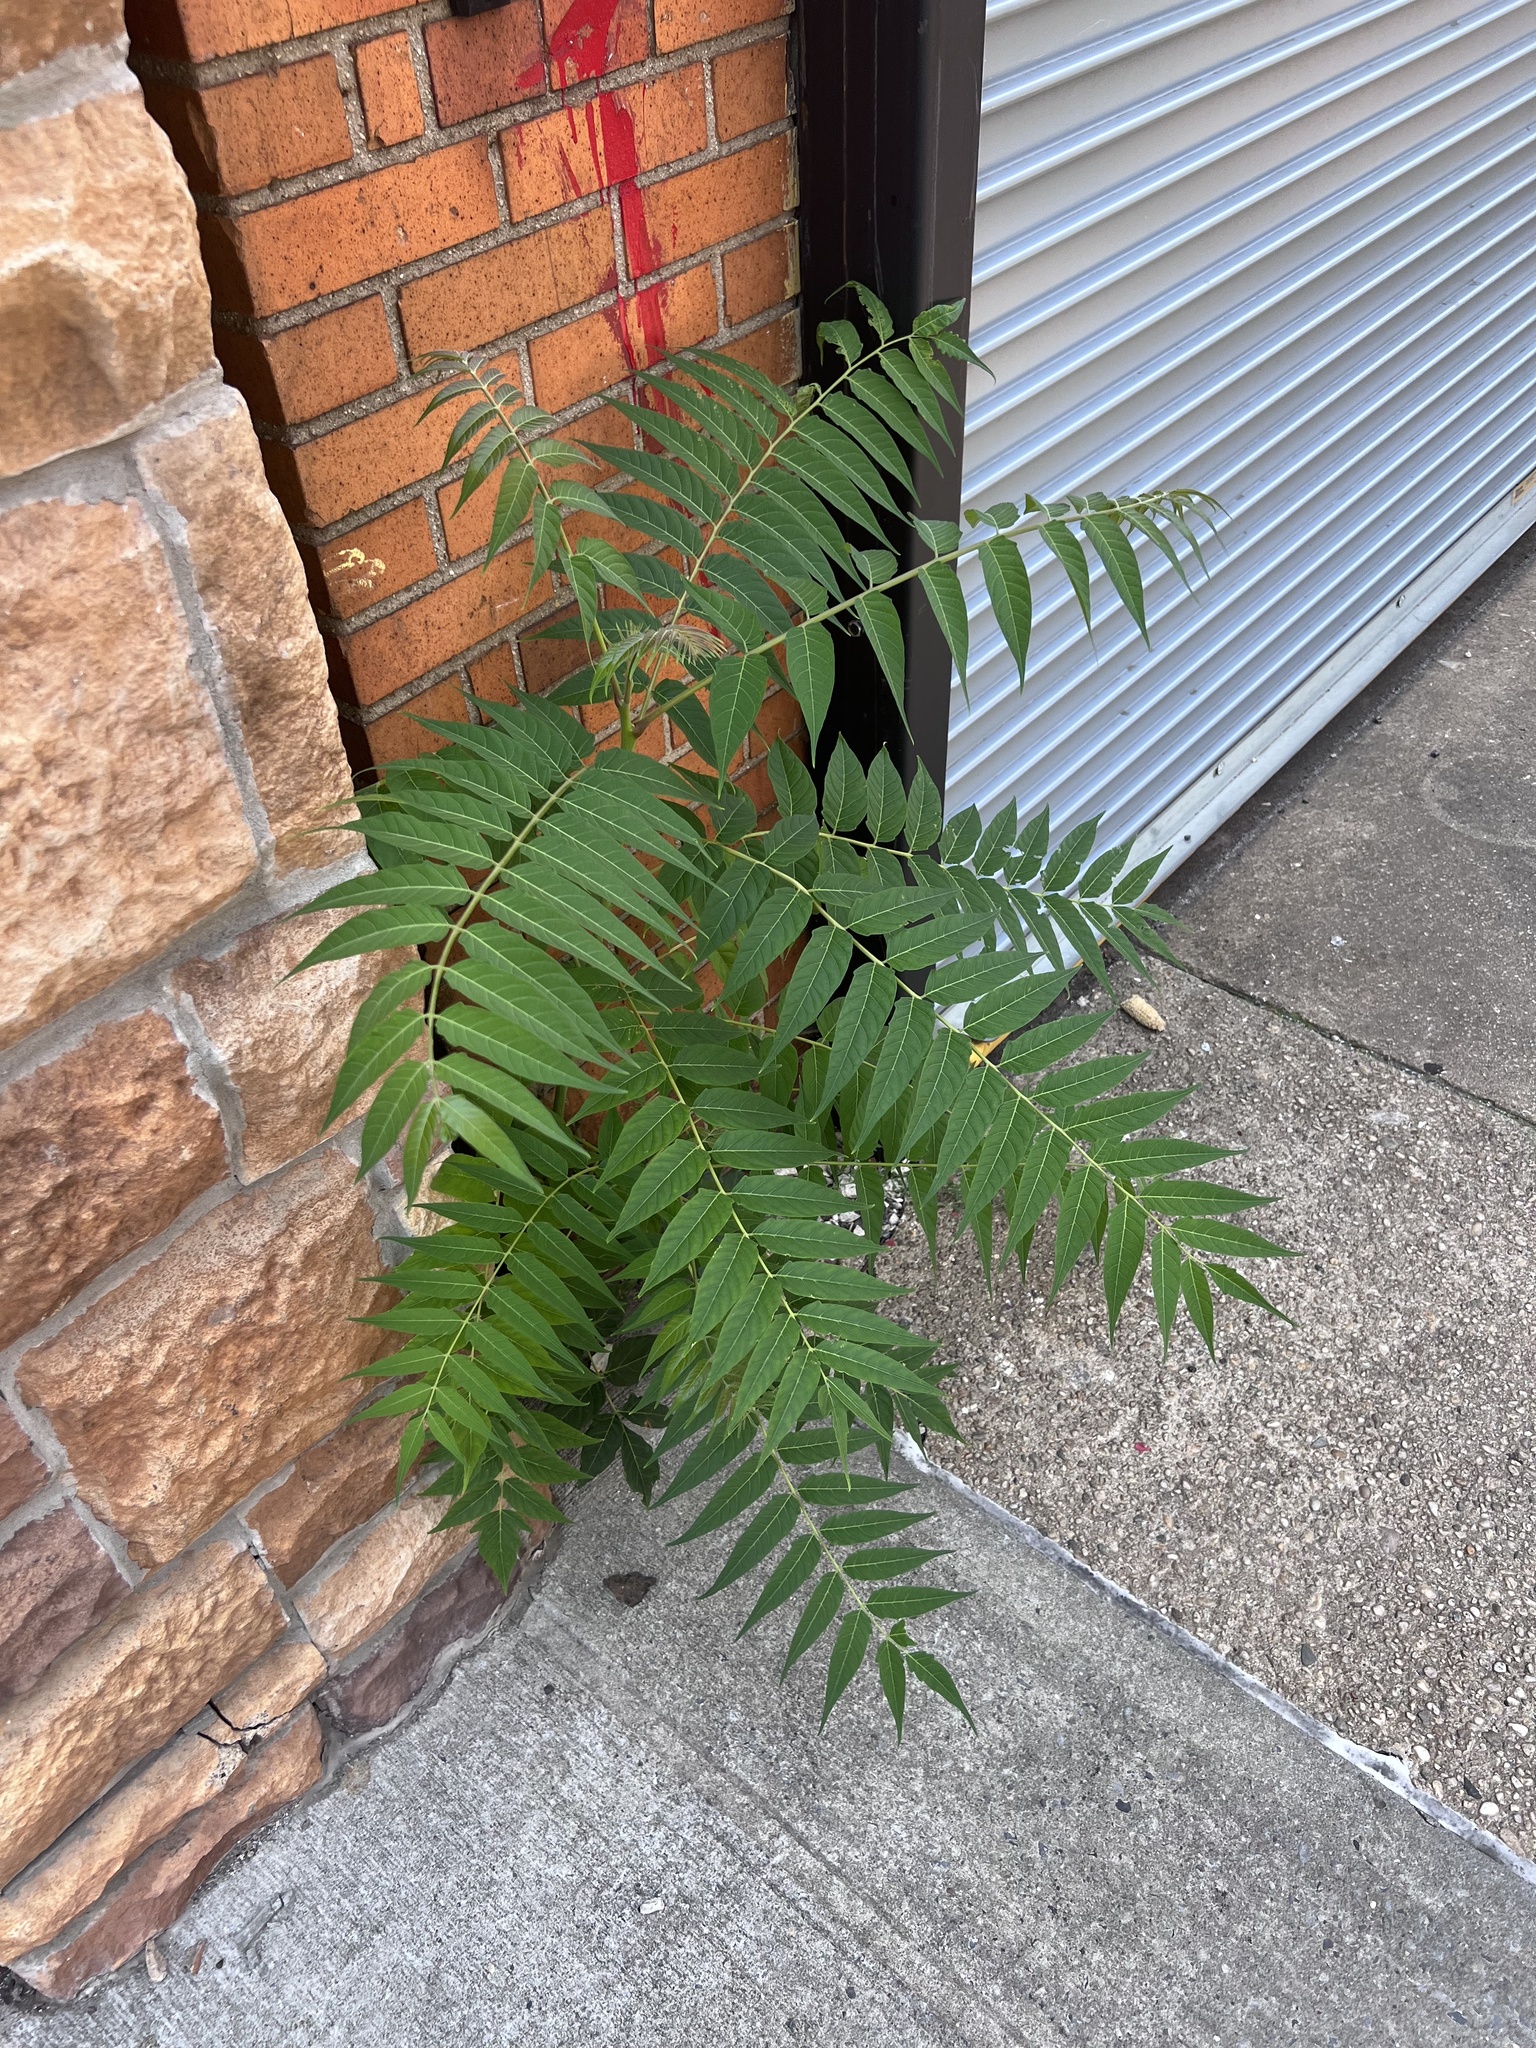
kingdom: Plantae
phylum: Tracheophyta
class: Magnoliopsida
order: Sapindales
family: Simaroubaceae
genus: Ailanthus
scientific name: Ailanthus altissima
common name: Tree-of-heaven
